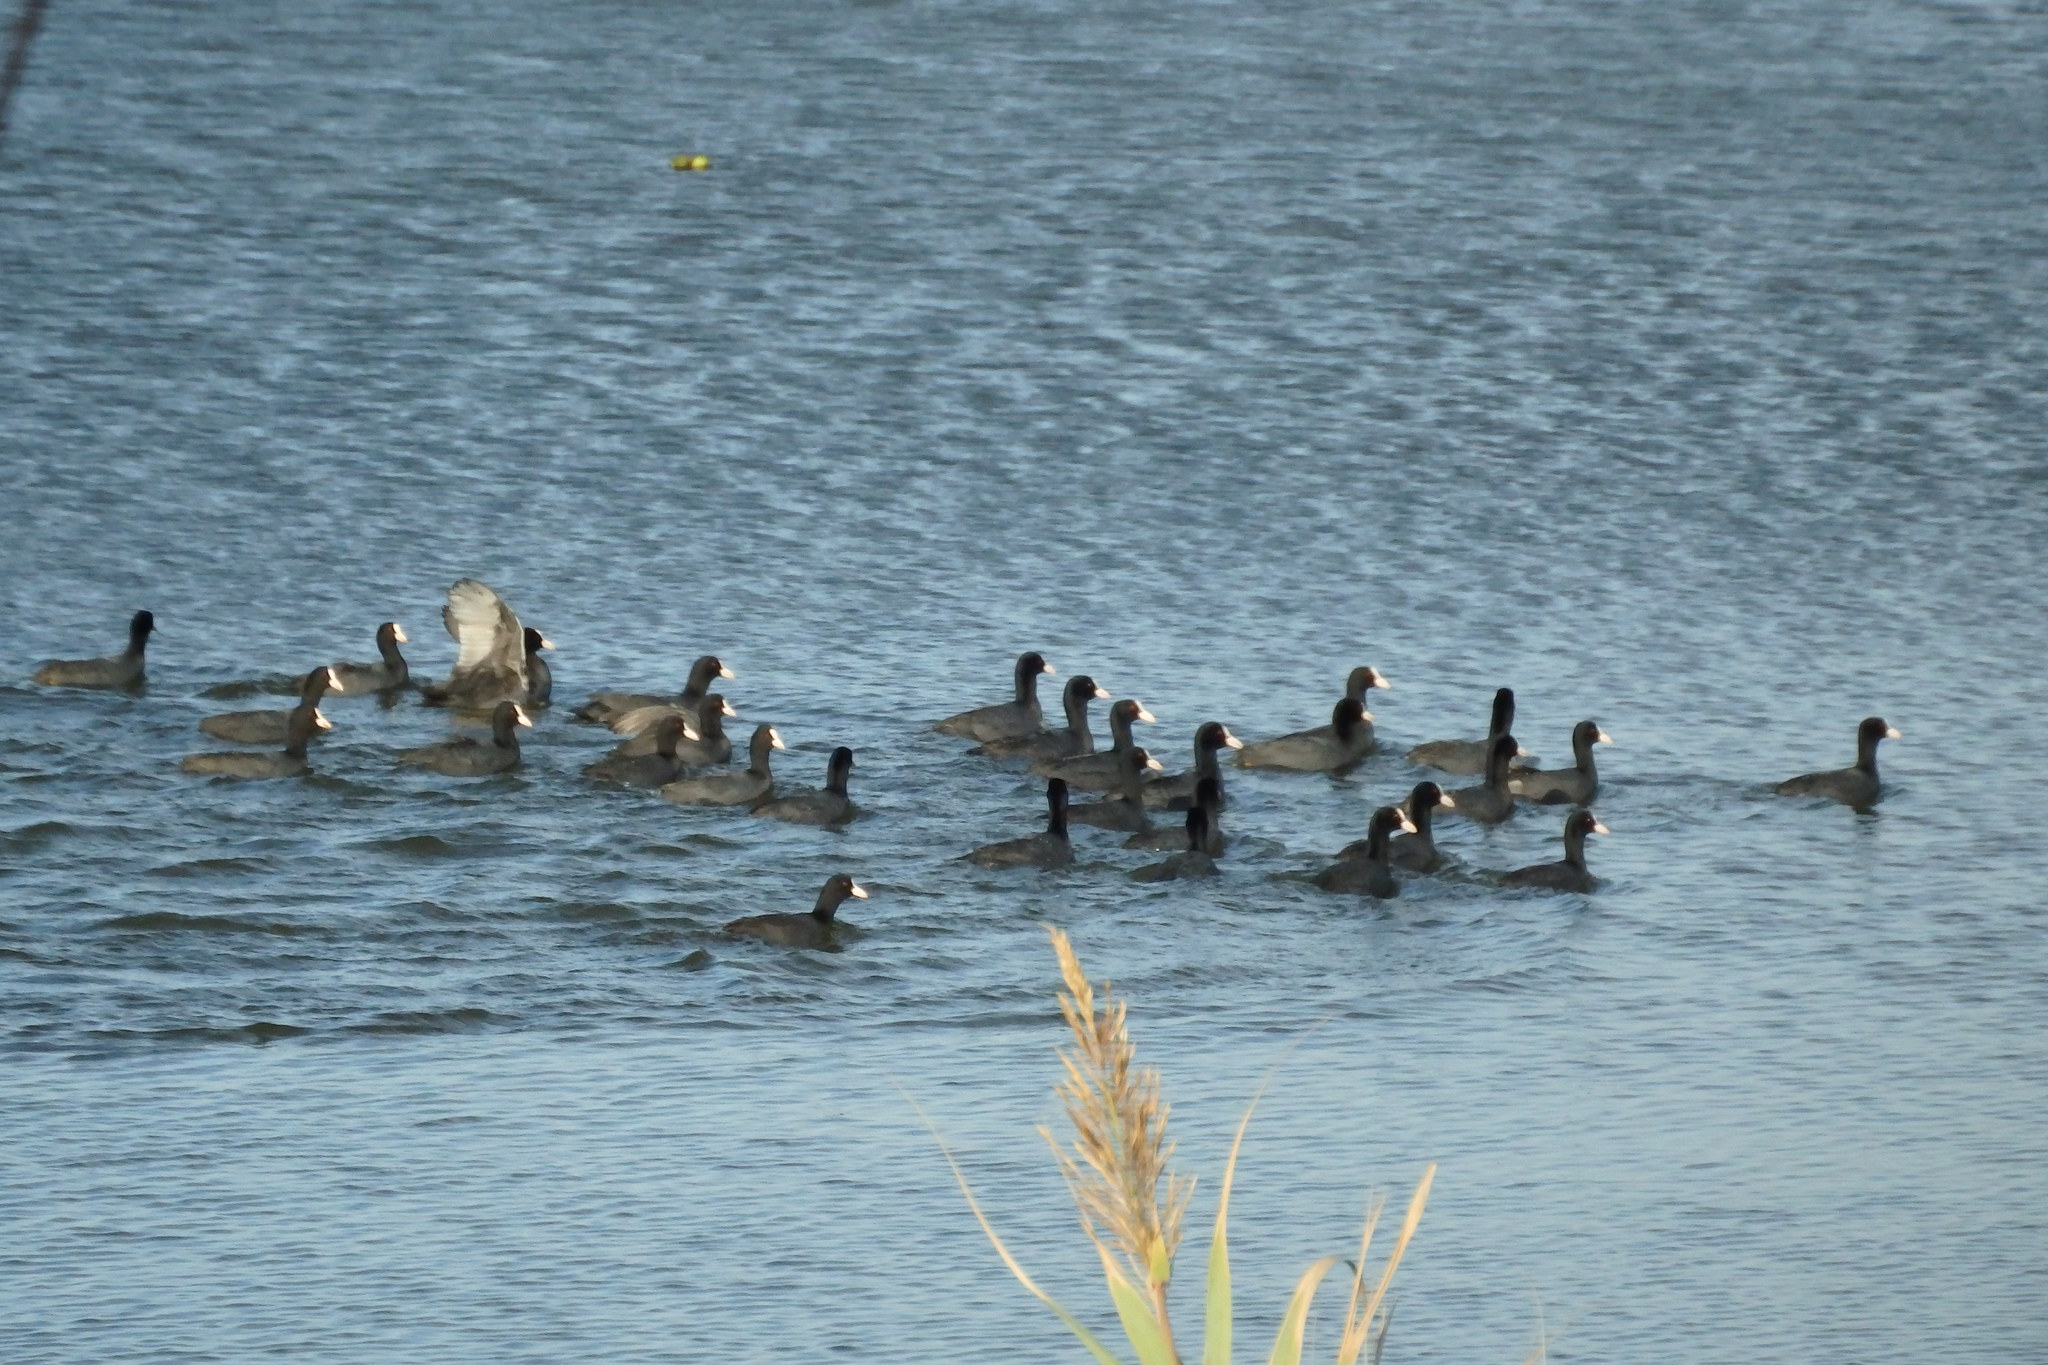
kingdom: Animalia
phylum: Chordata
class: Aves
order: Gruiformes
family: Rallidae
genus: Fulica
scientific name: Fulica atra
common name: Eurasian coot
